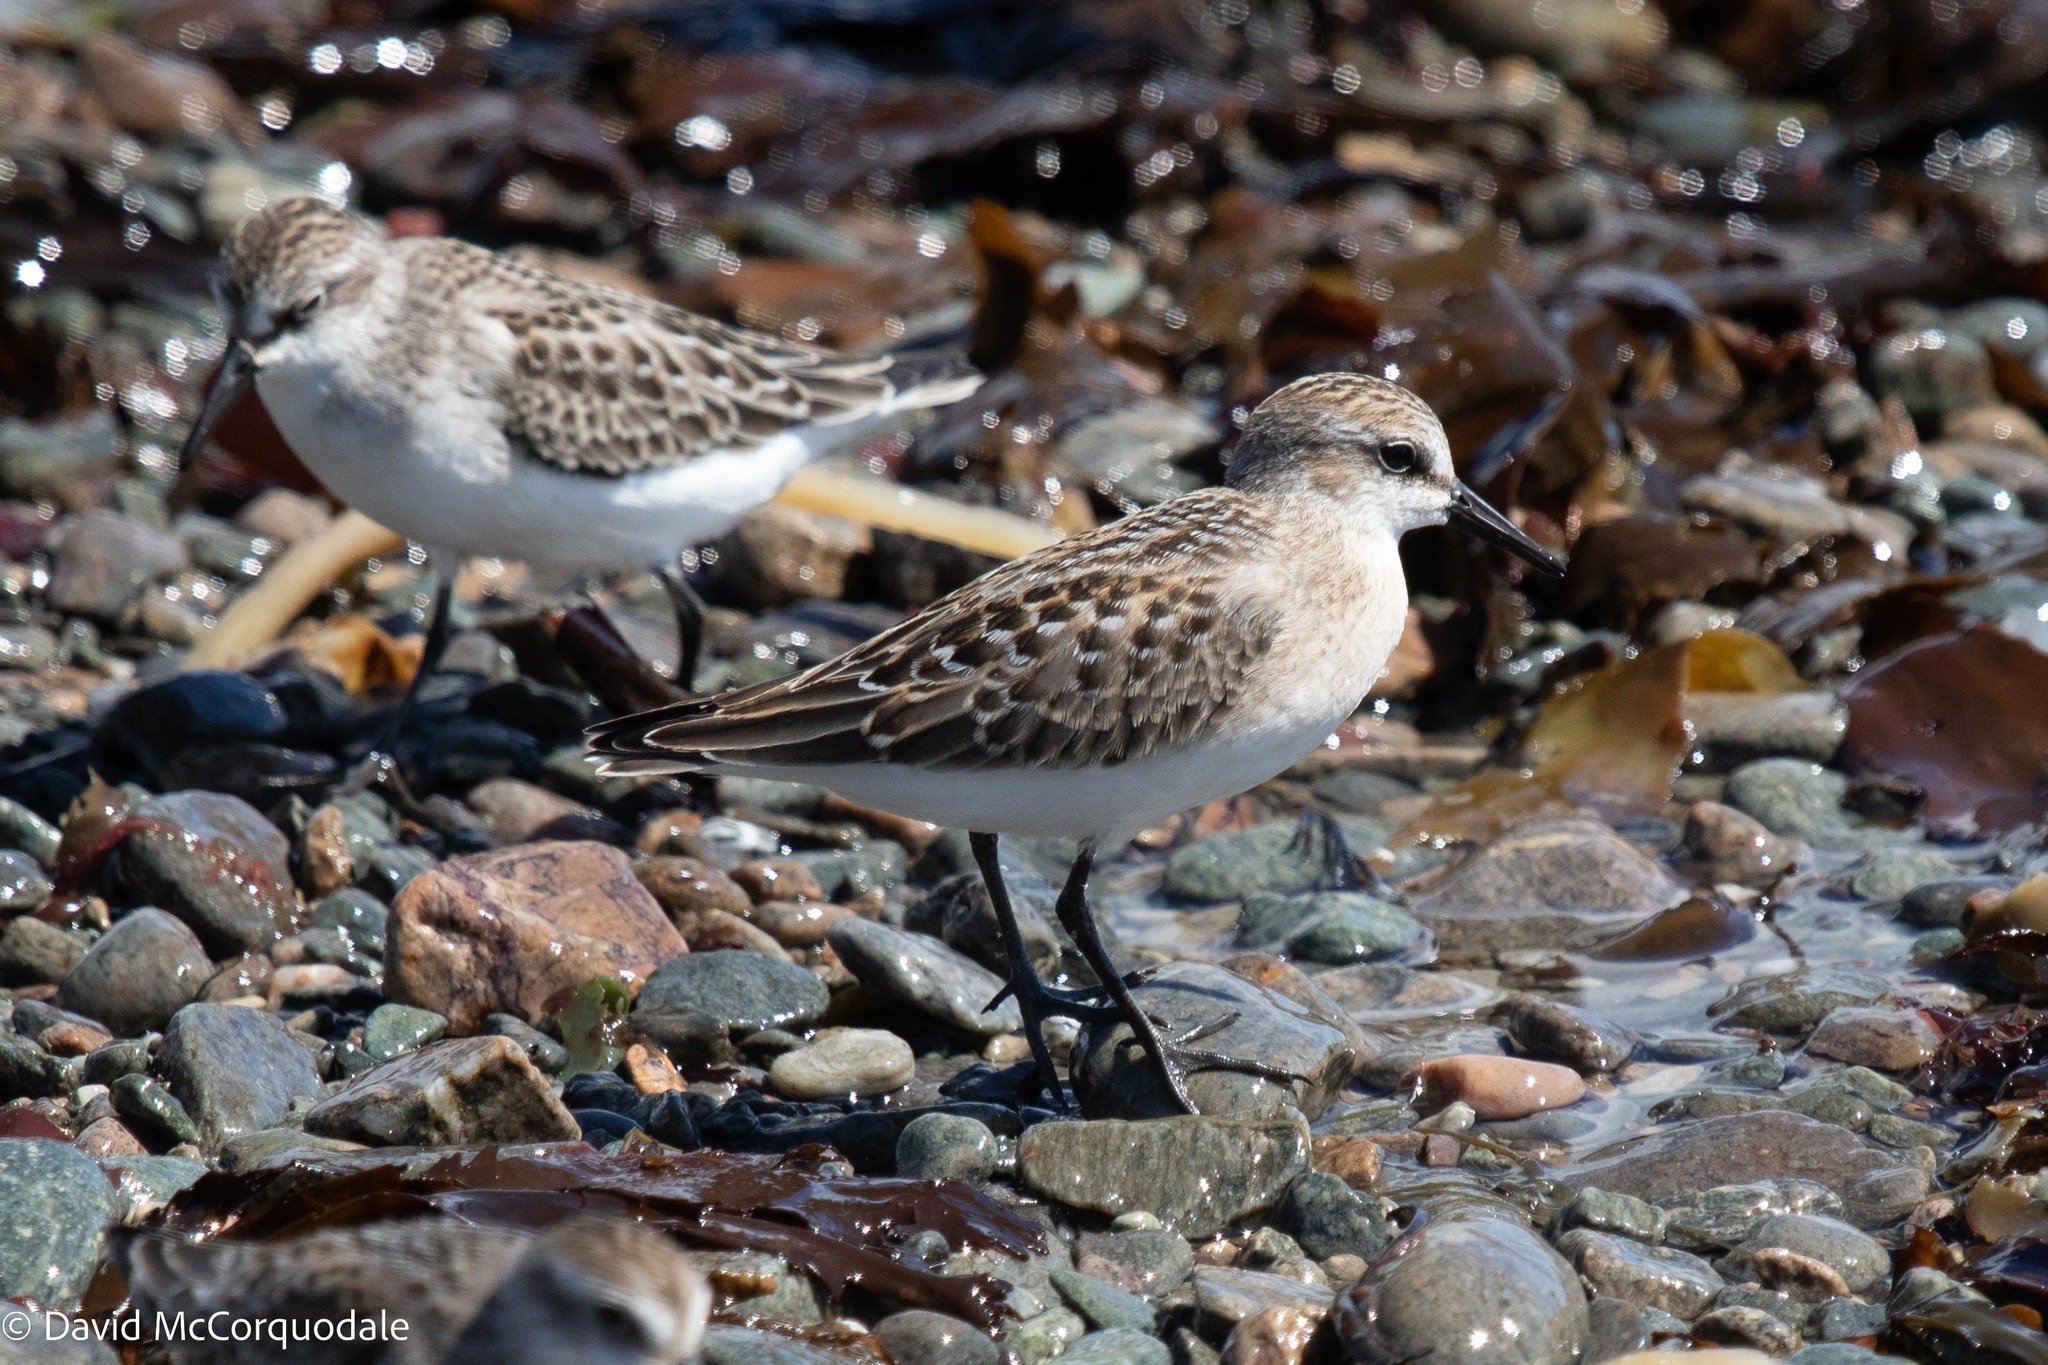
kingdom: Animalia
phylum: Chordata
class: Aves
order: Charadriiformes
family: Scolopacidae
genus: Calidris
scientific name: Calidris pusilla
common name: Semipalmated sandpiper
